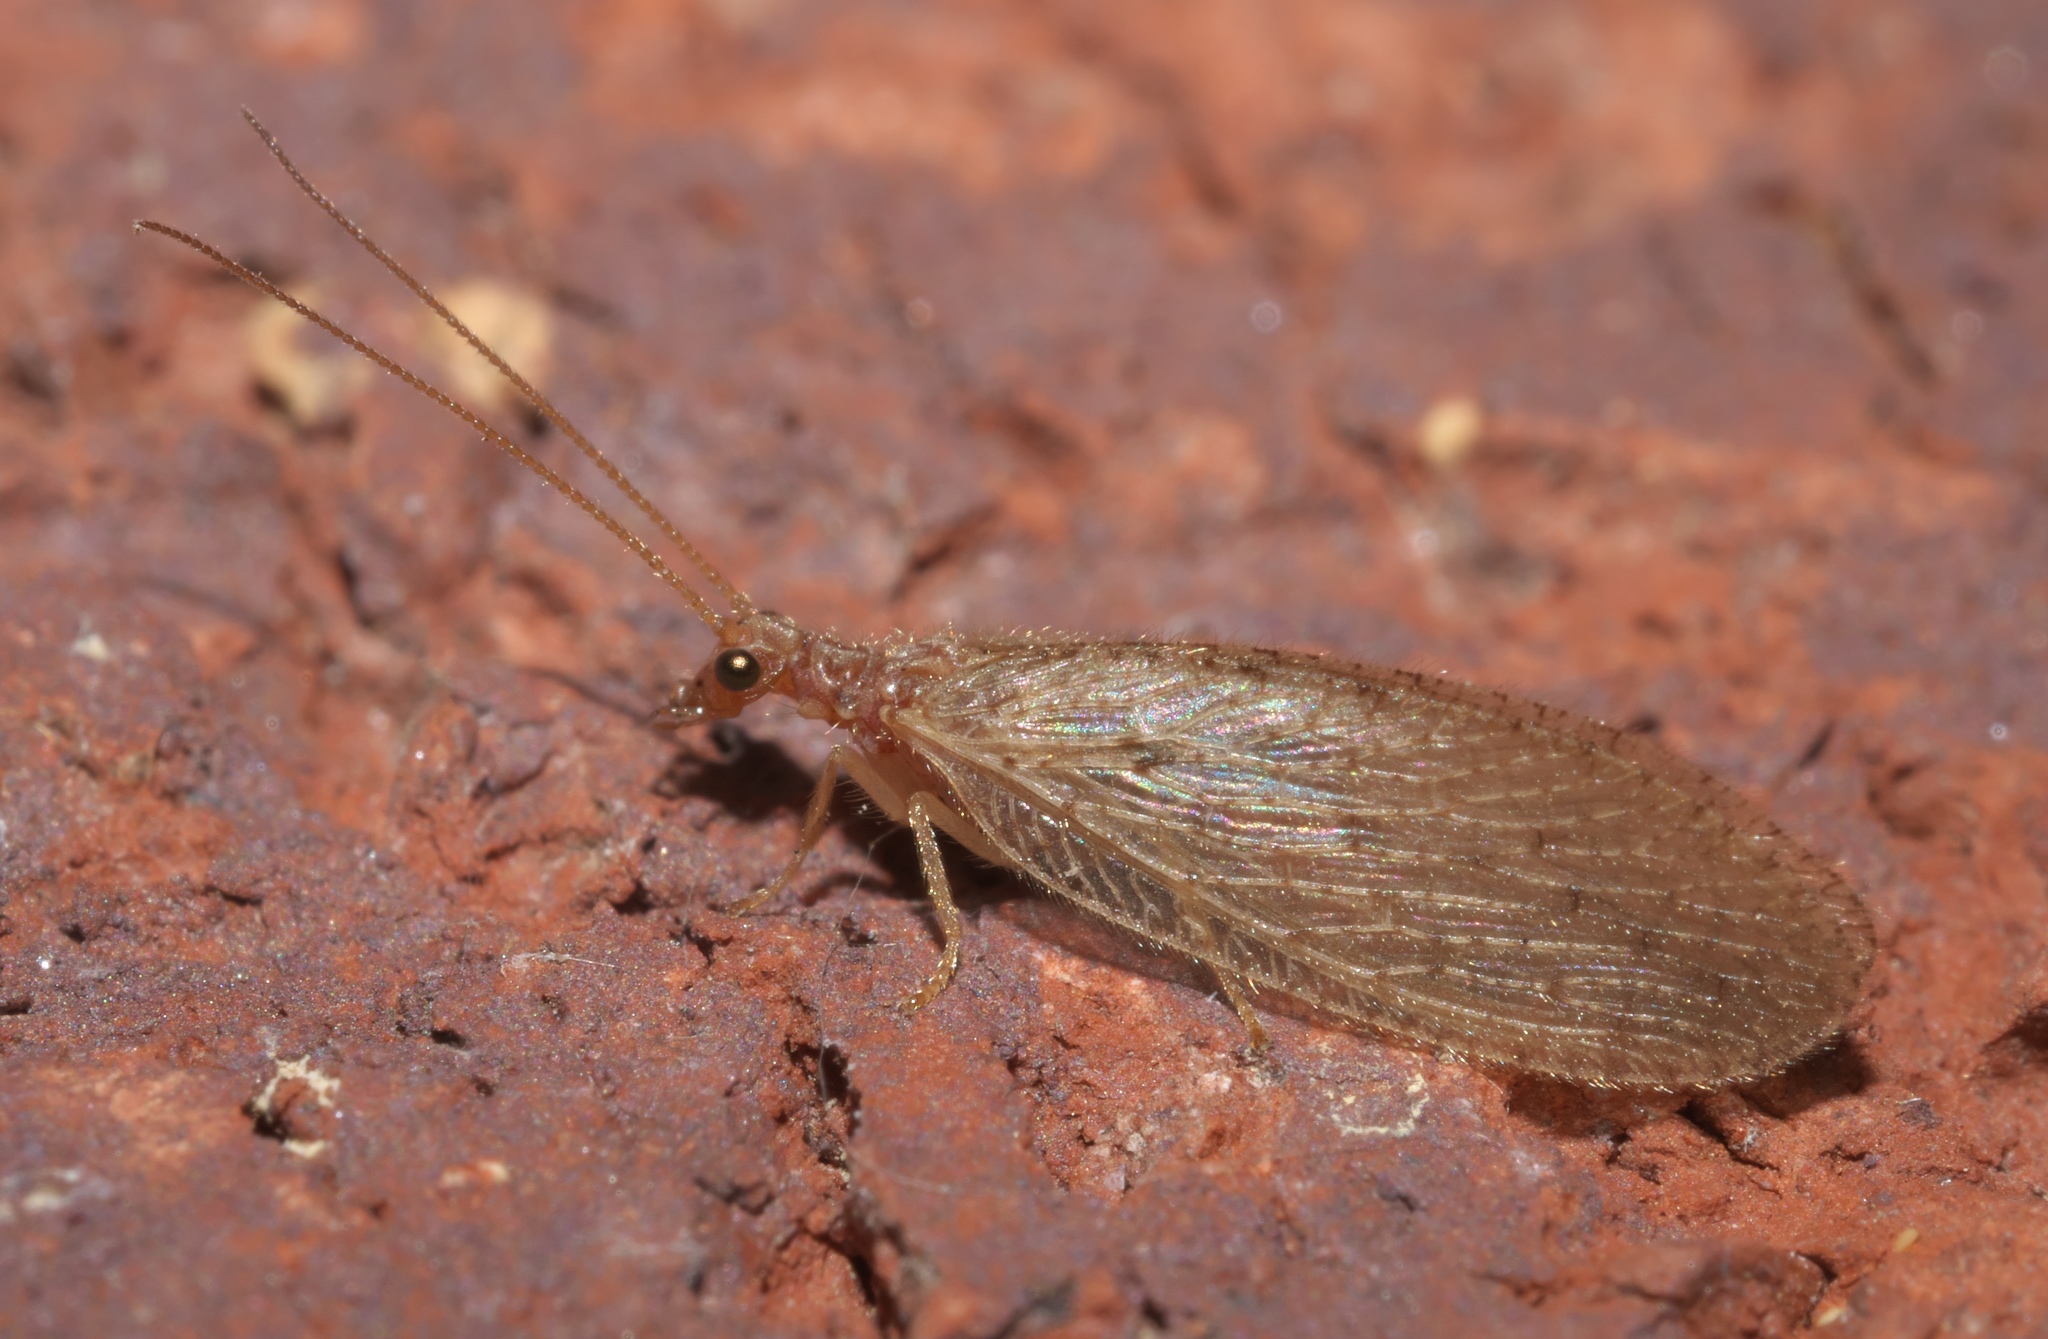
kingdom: Animalia
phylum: Arthropoda
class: Insecta
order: Neuroptera
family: Hemerobiidae
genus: Micromus
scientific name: Micromus subanticus
